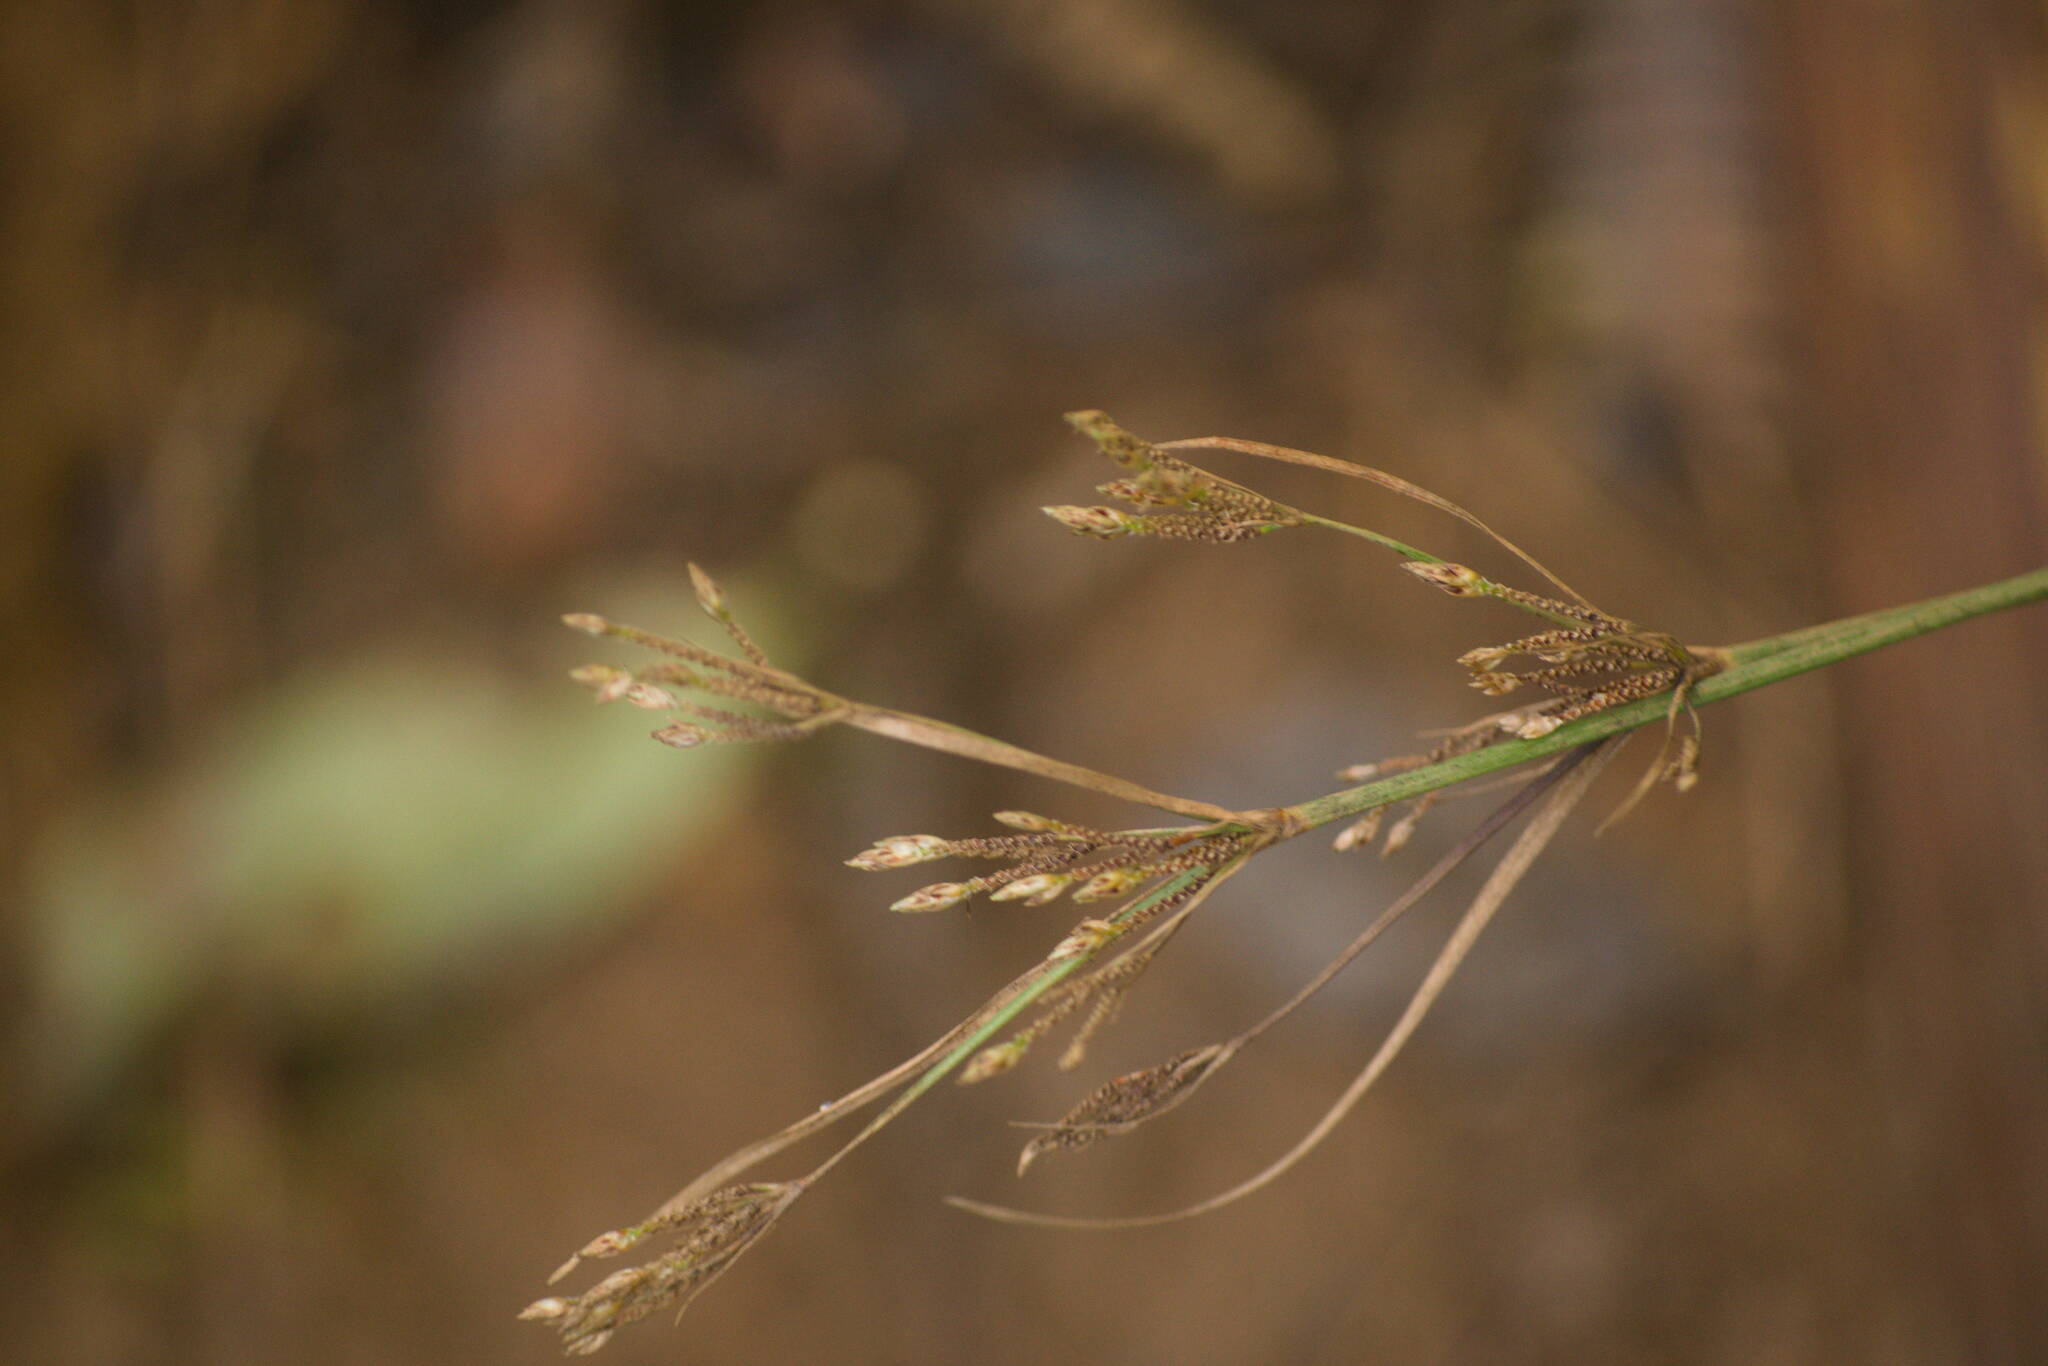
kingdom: Plantae
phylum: Tracheophyta
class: Liliopsida
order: Poales
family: Cyperaceae
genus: Fimbristylis
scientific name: Fimbristylis dichotoma
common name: Forked fimbry
